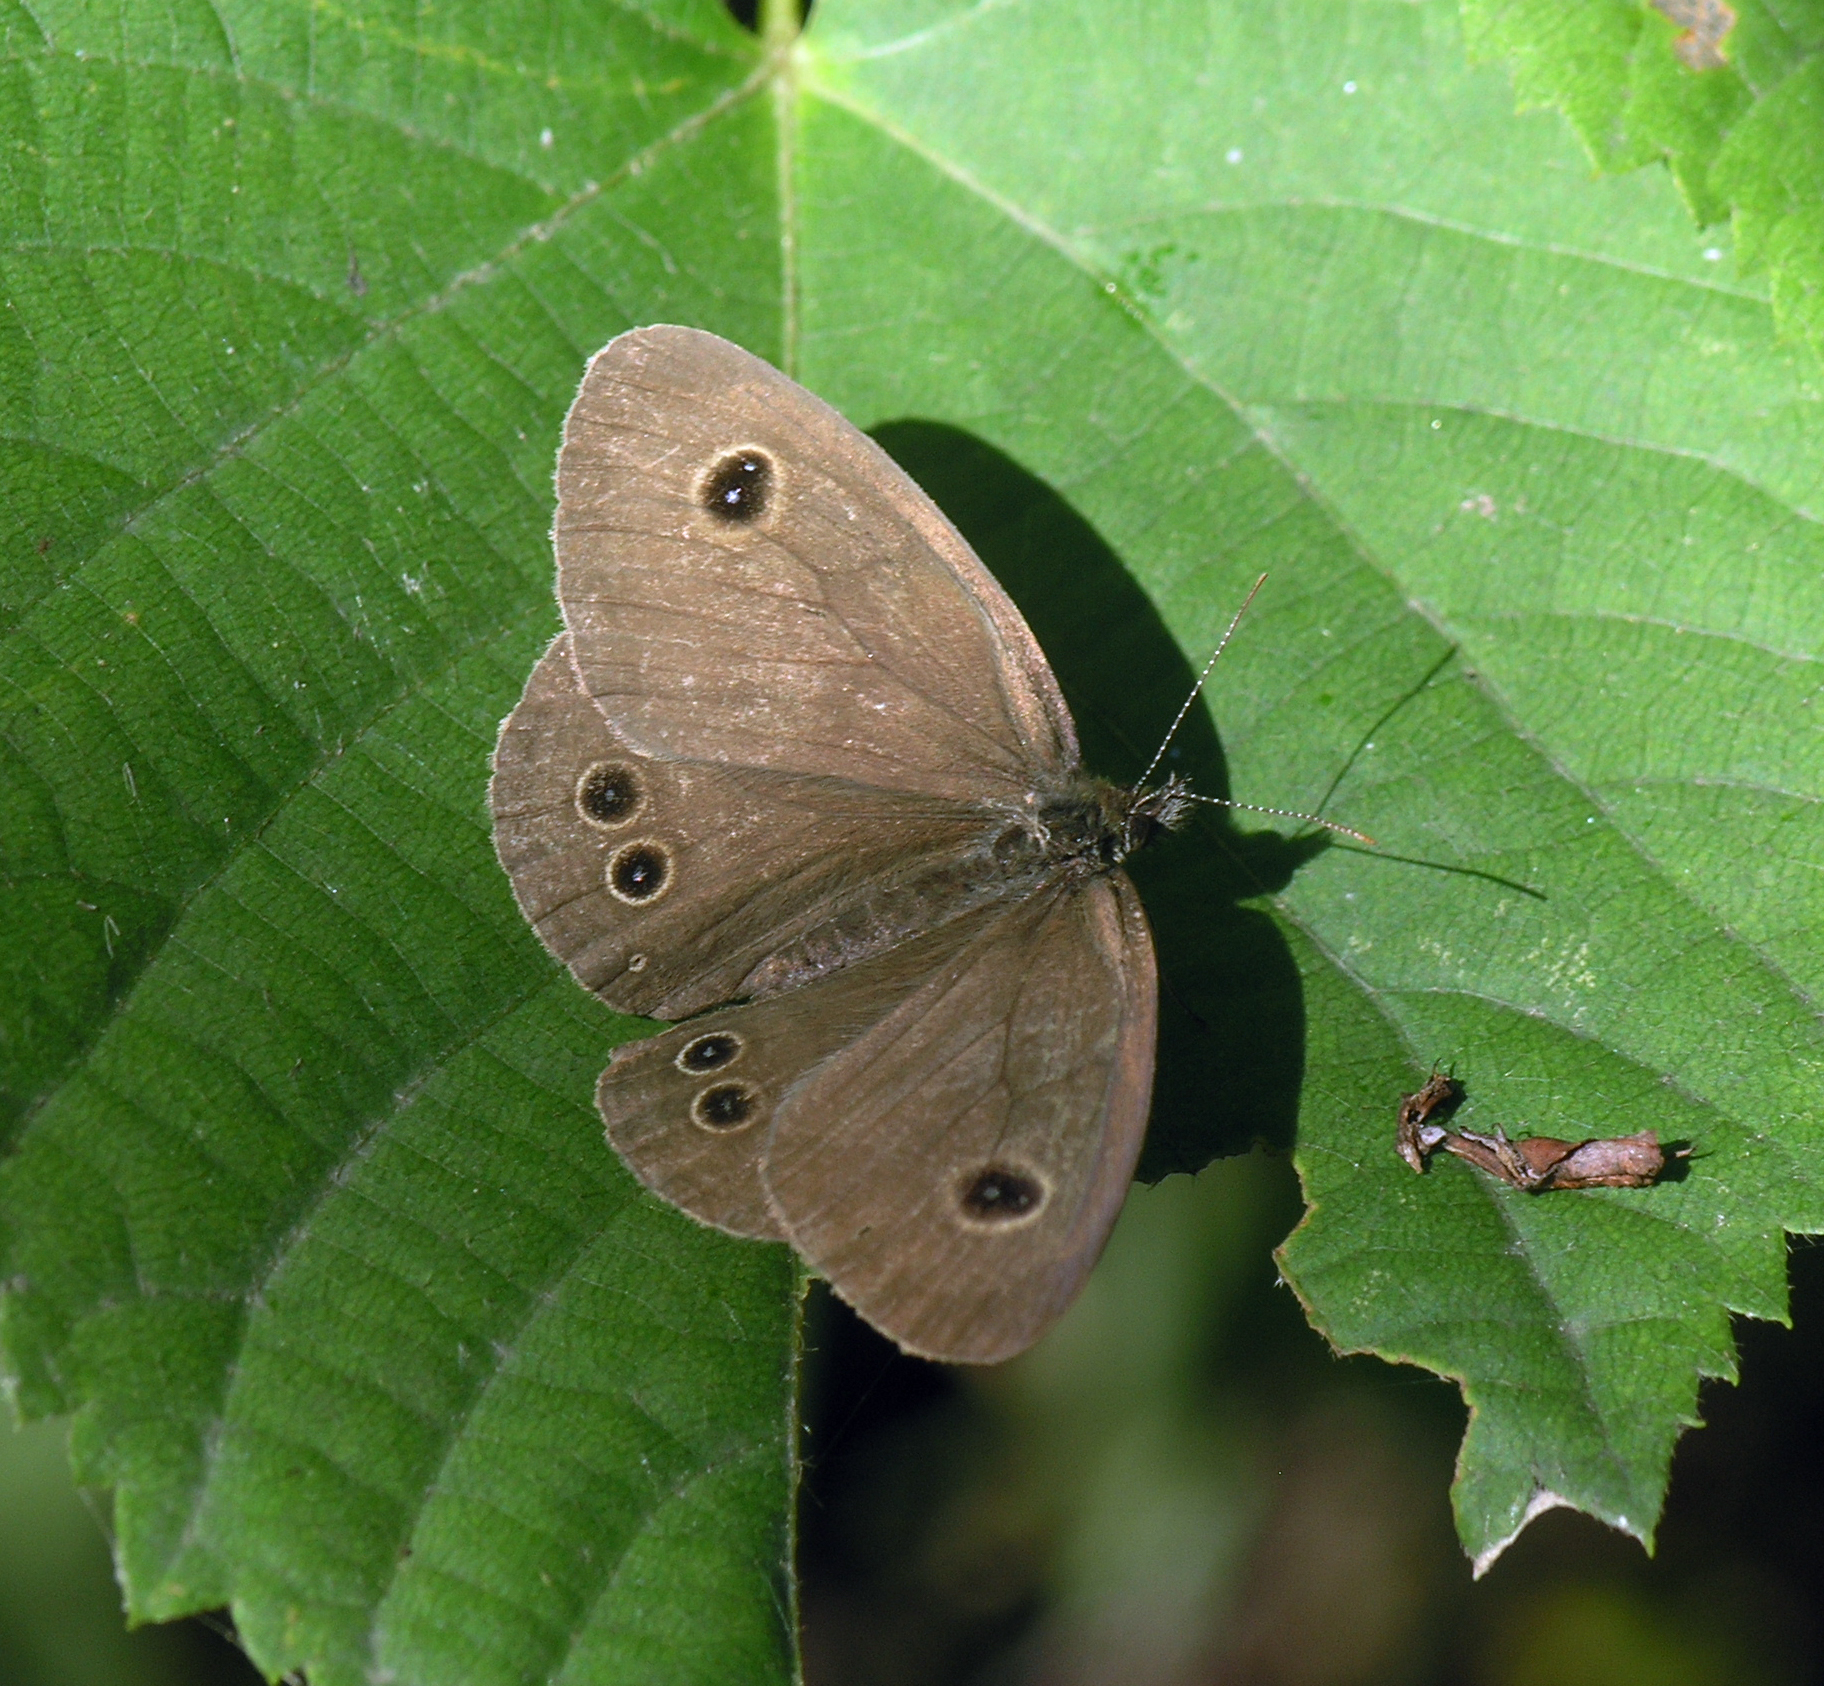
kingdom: Animalia
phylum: Arthropoda
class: Insecta
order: Lepidoptera
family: Nymphalidae
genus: Ypthima
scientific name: Ypthima argus
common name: Common fivering
